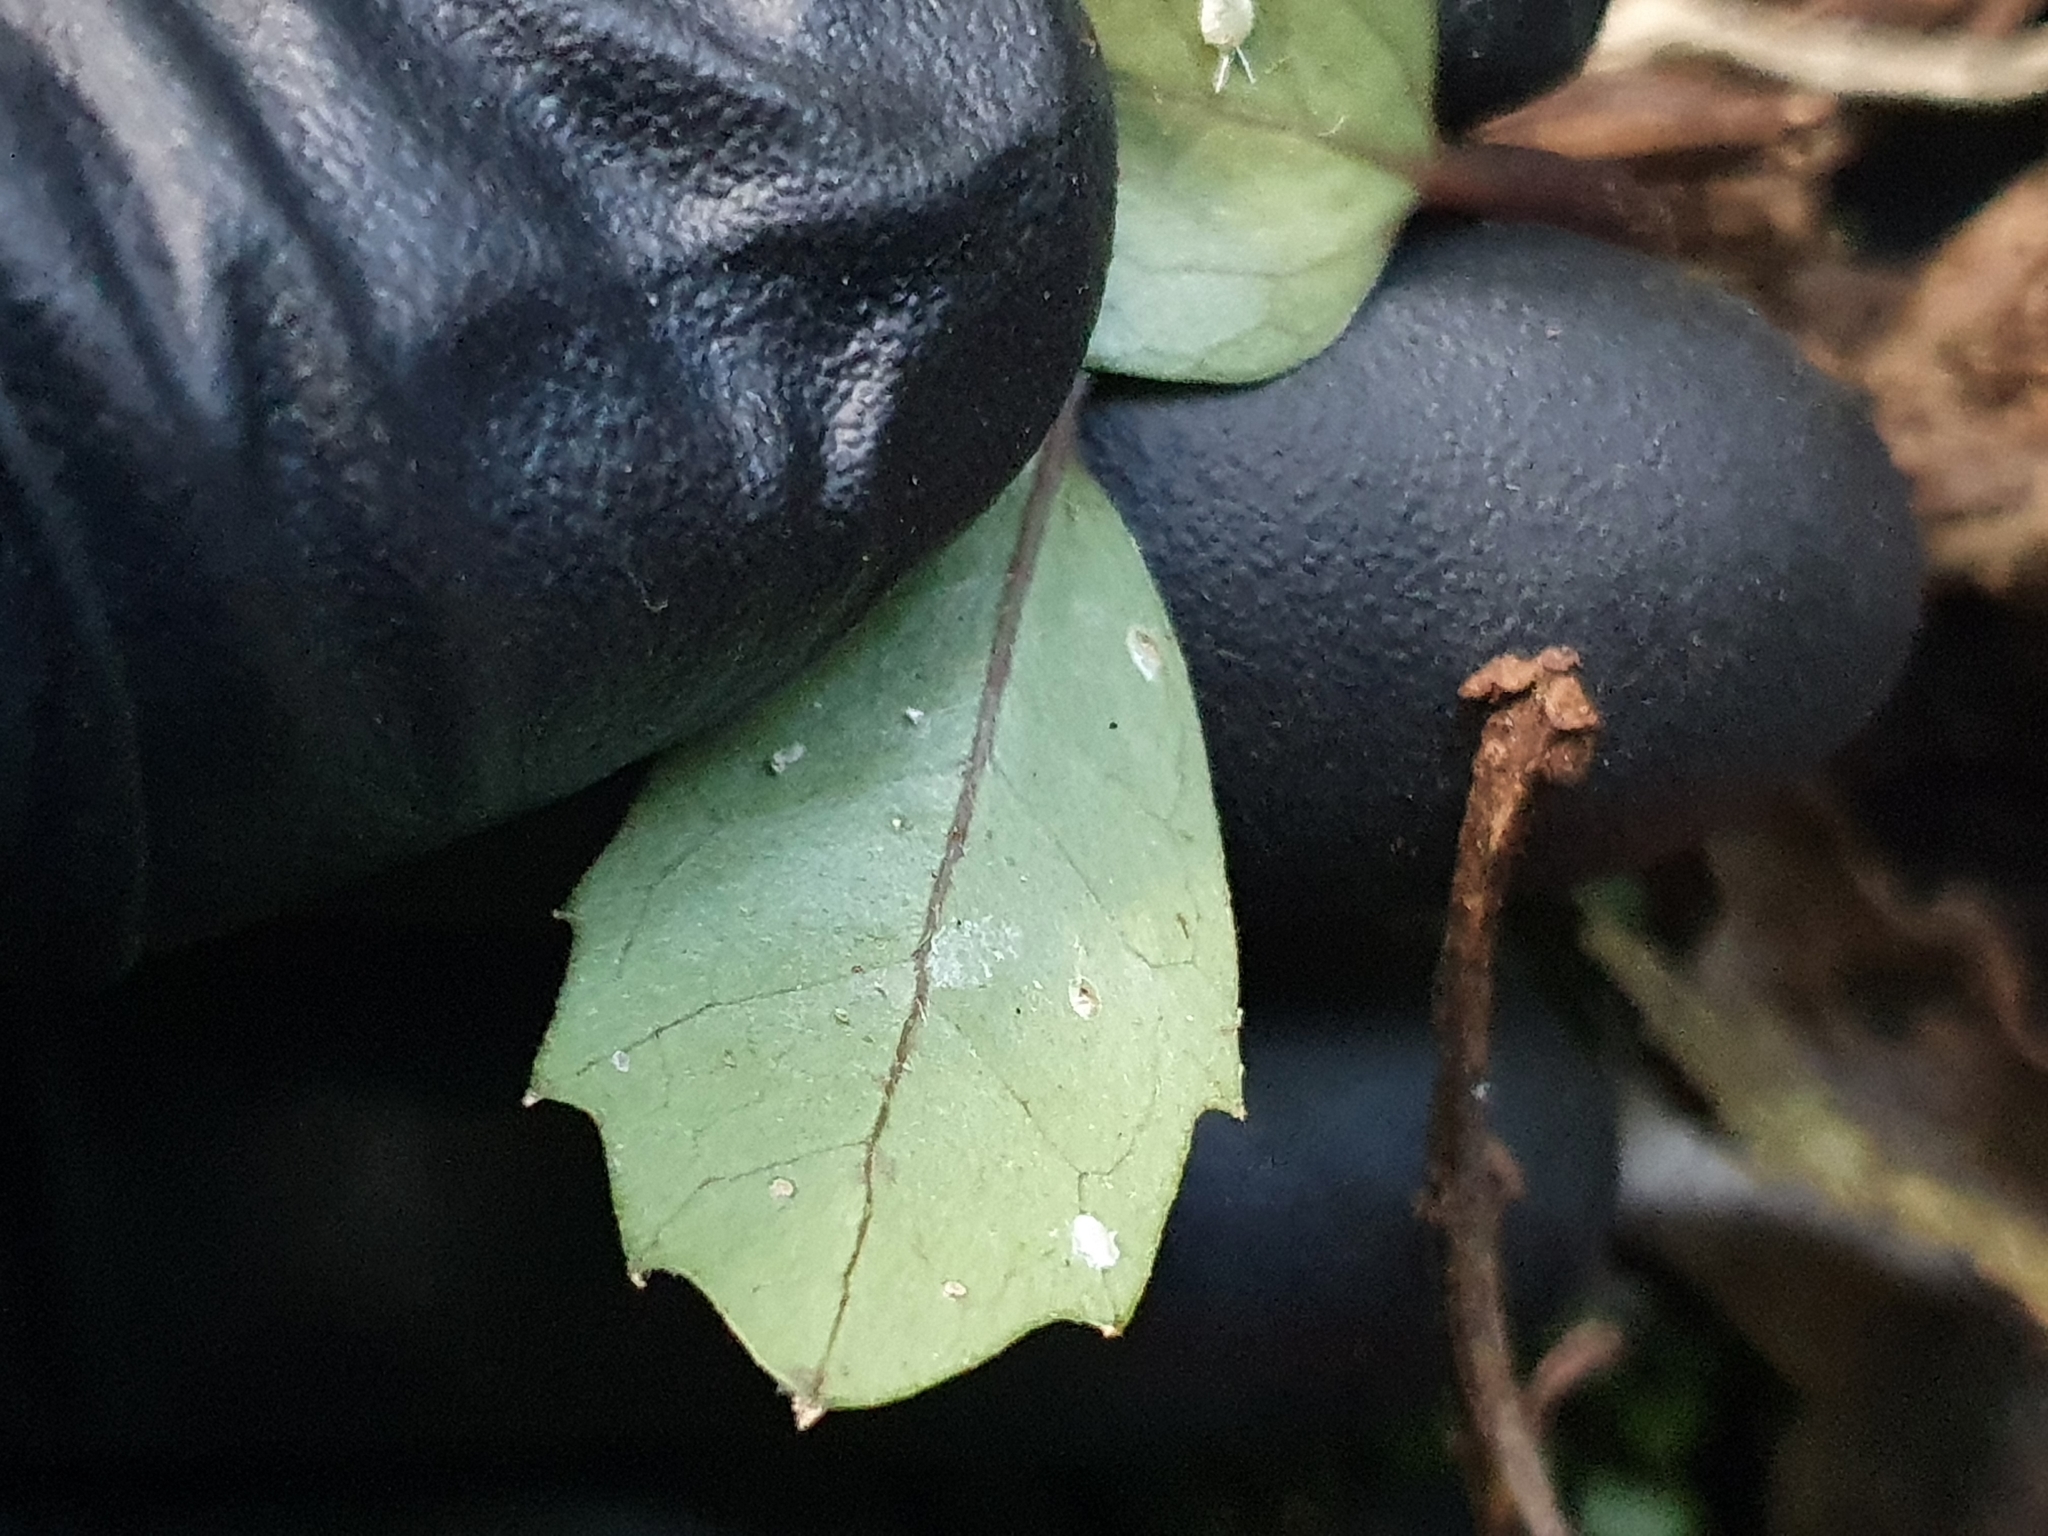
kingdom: Plantae
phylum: Tracheophyta
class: Magnoliopsida
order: Laurales
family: Monimiaceae
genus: Hedycarya
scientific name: Hedycarya arborea
